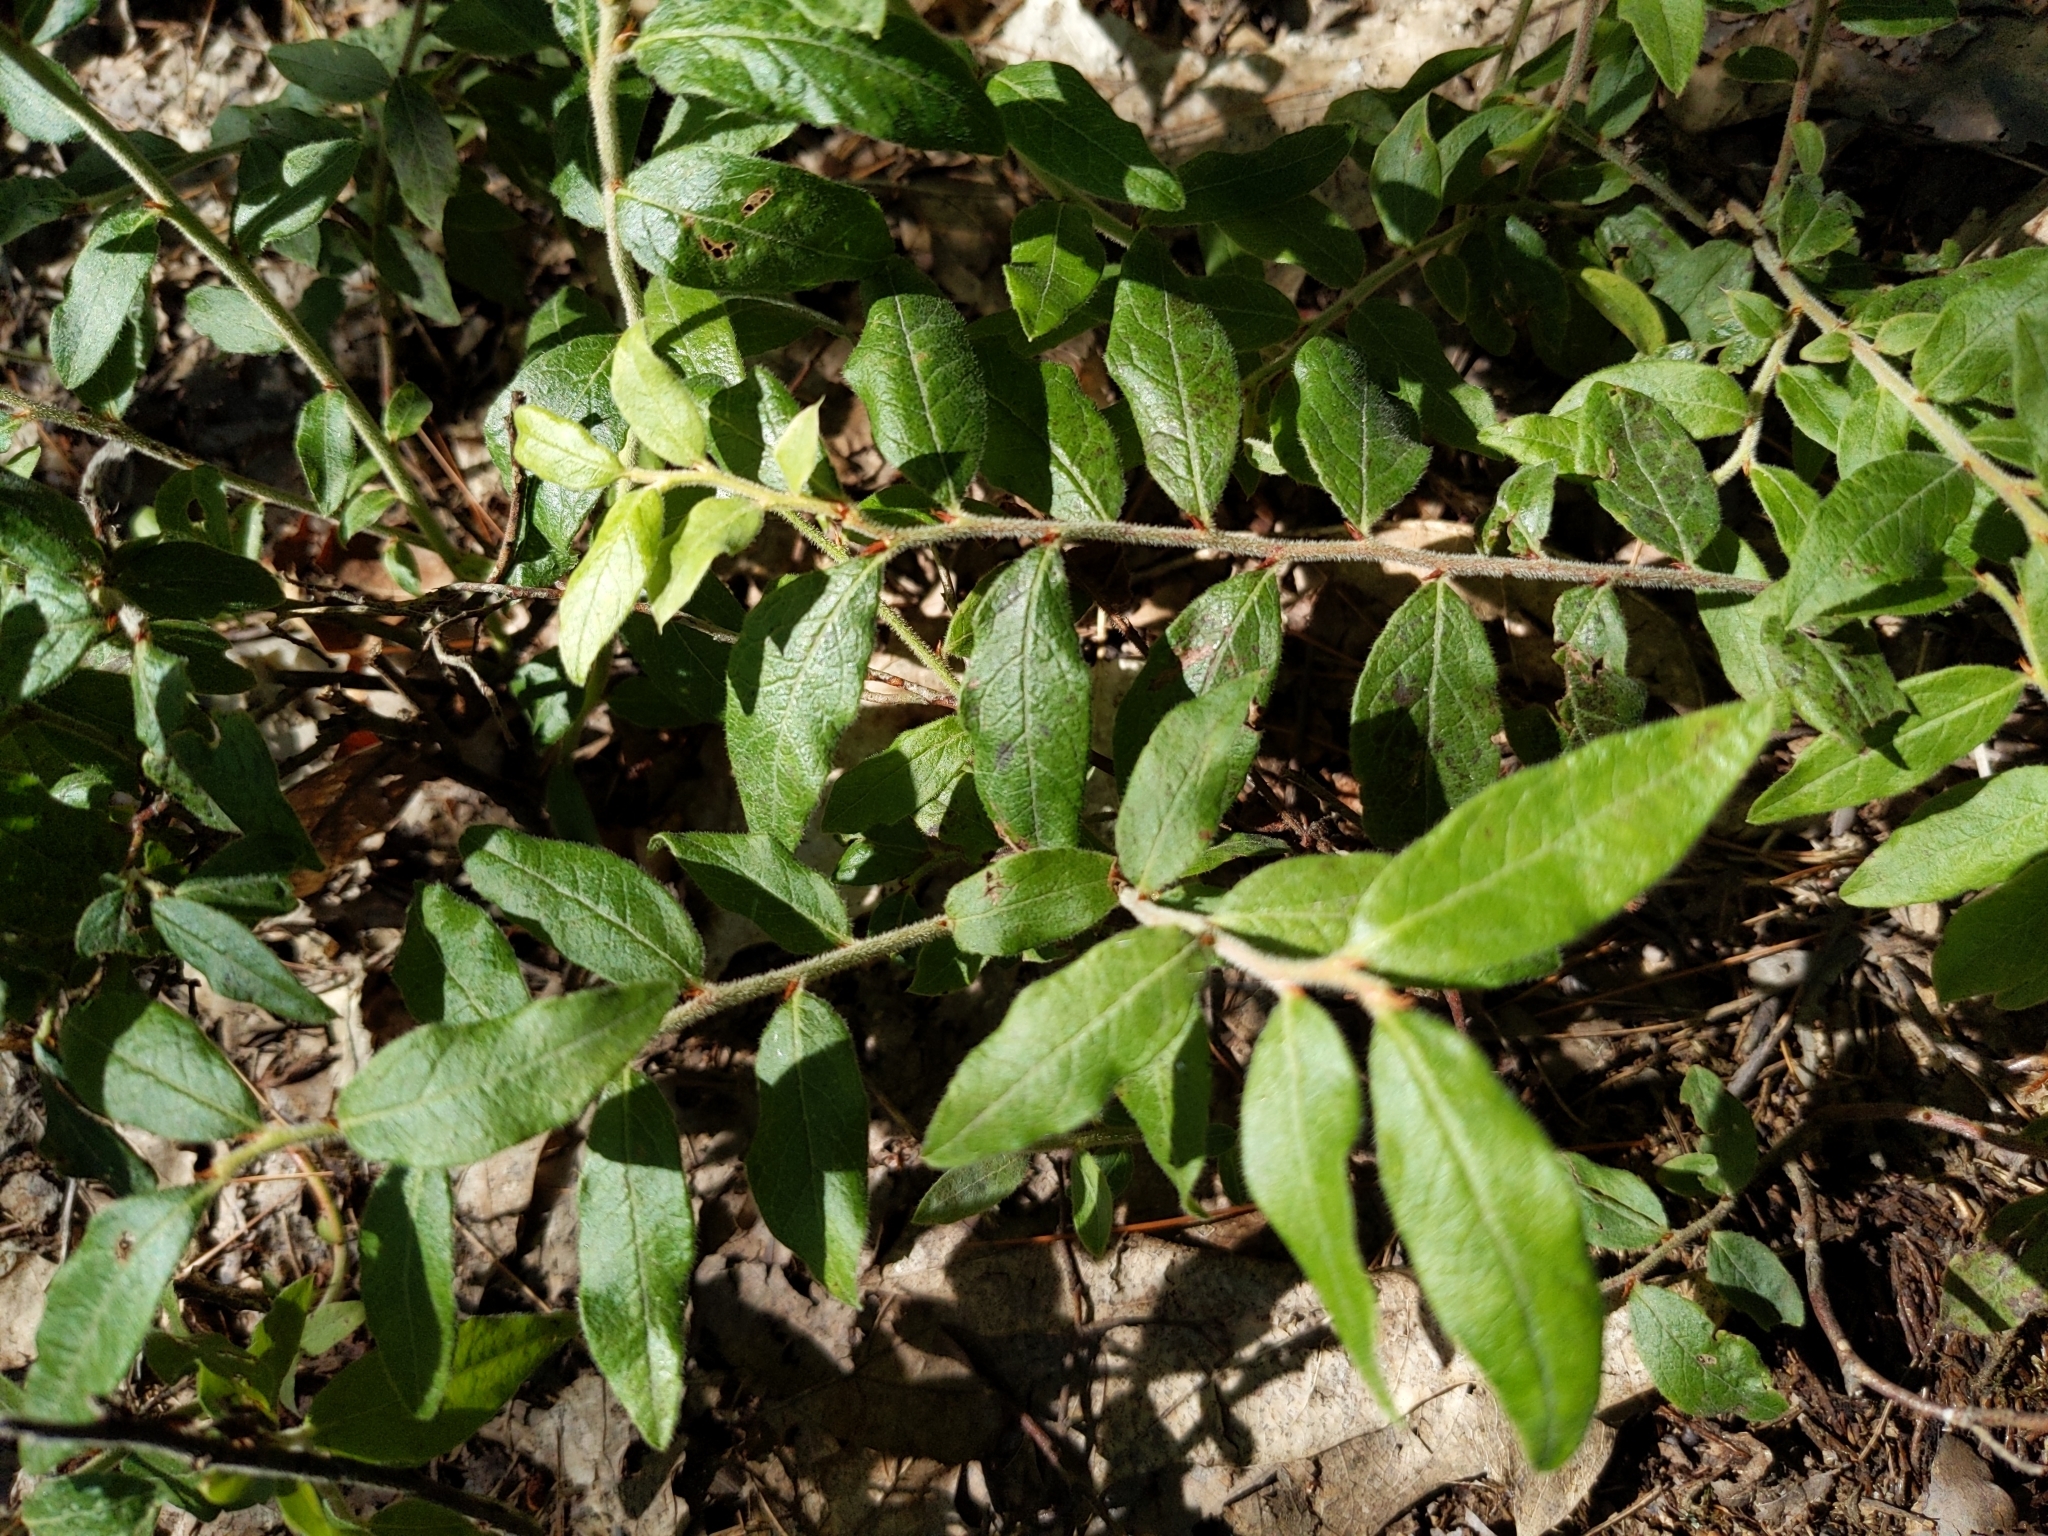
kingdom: Plantae
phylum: Tracheophyta
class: Magnoliopsida
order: Ericales
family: Ericaceae
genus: Vaccinium
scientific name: Vaccinium myrtilloides
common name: Canada blueberry
